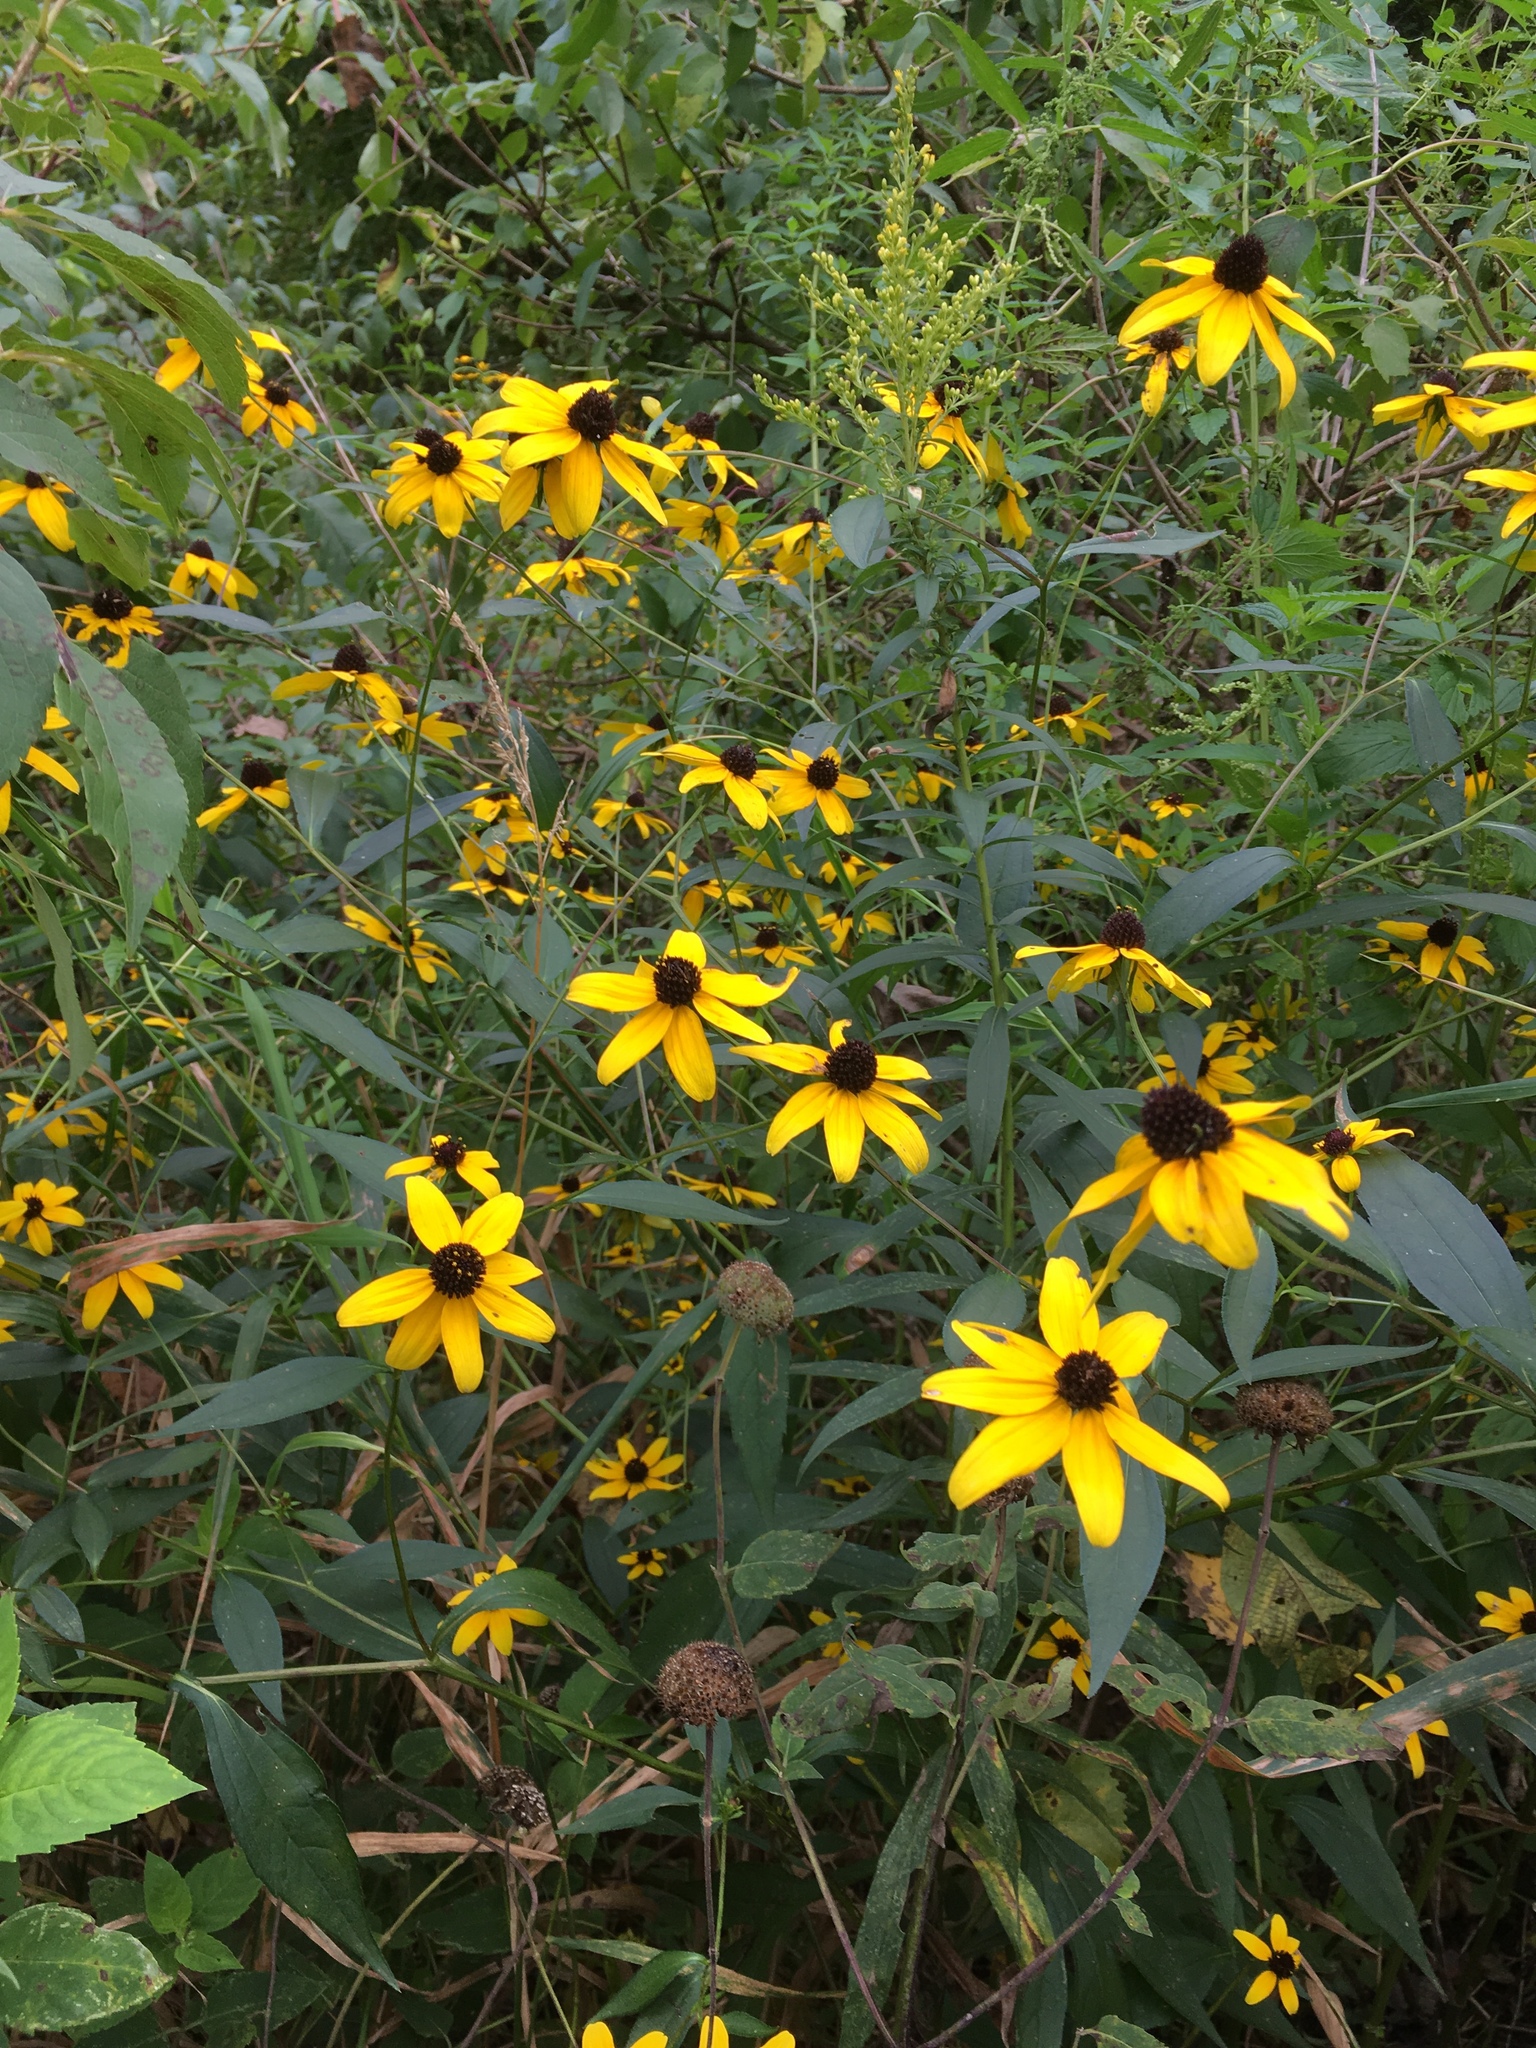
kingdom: Plantae
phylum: Tracheophyta
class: Magnoliopsida
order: Asterales
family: Asteraceae
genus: Rudbeckia
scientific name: Rudbeckia triloba
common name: Thin-leaved coneflower
